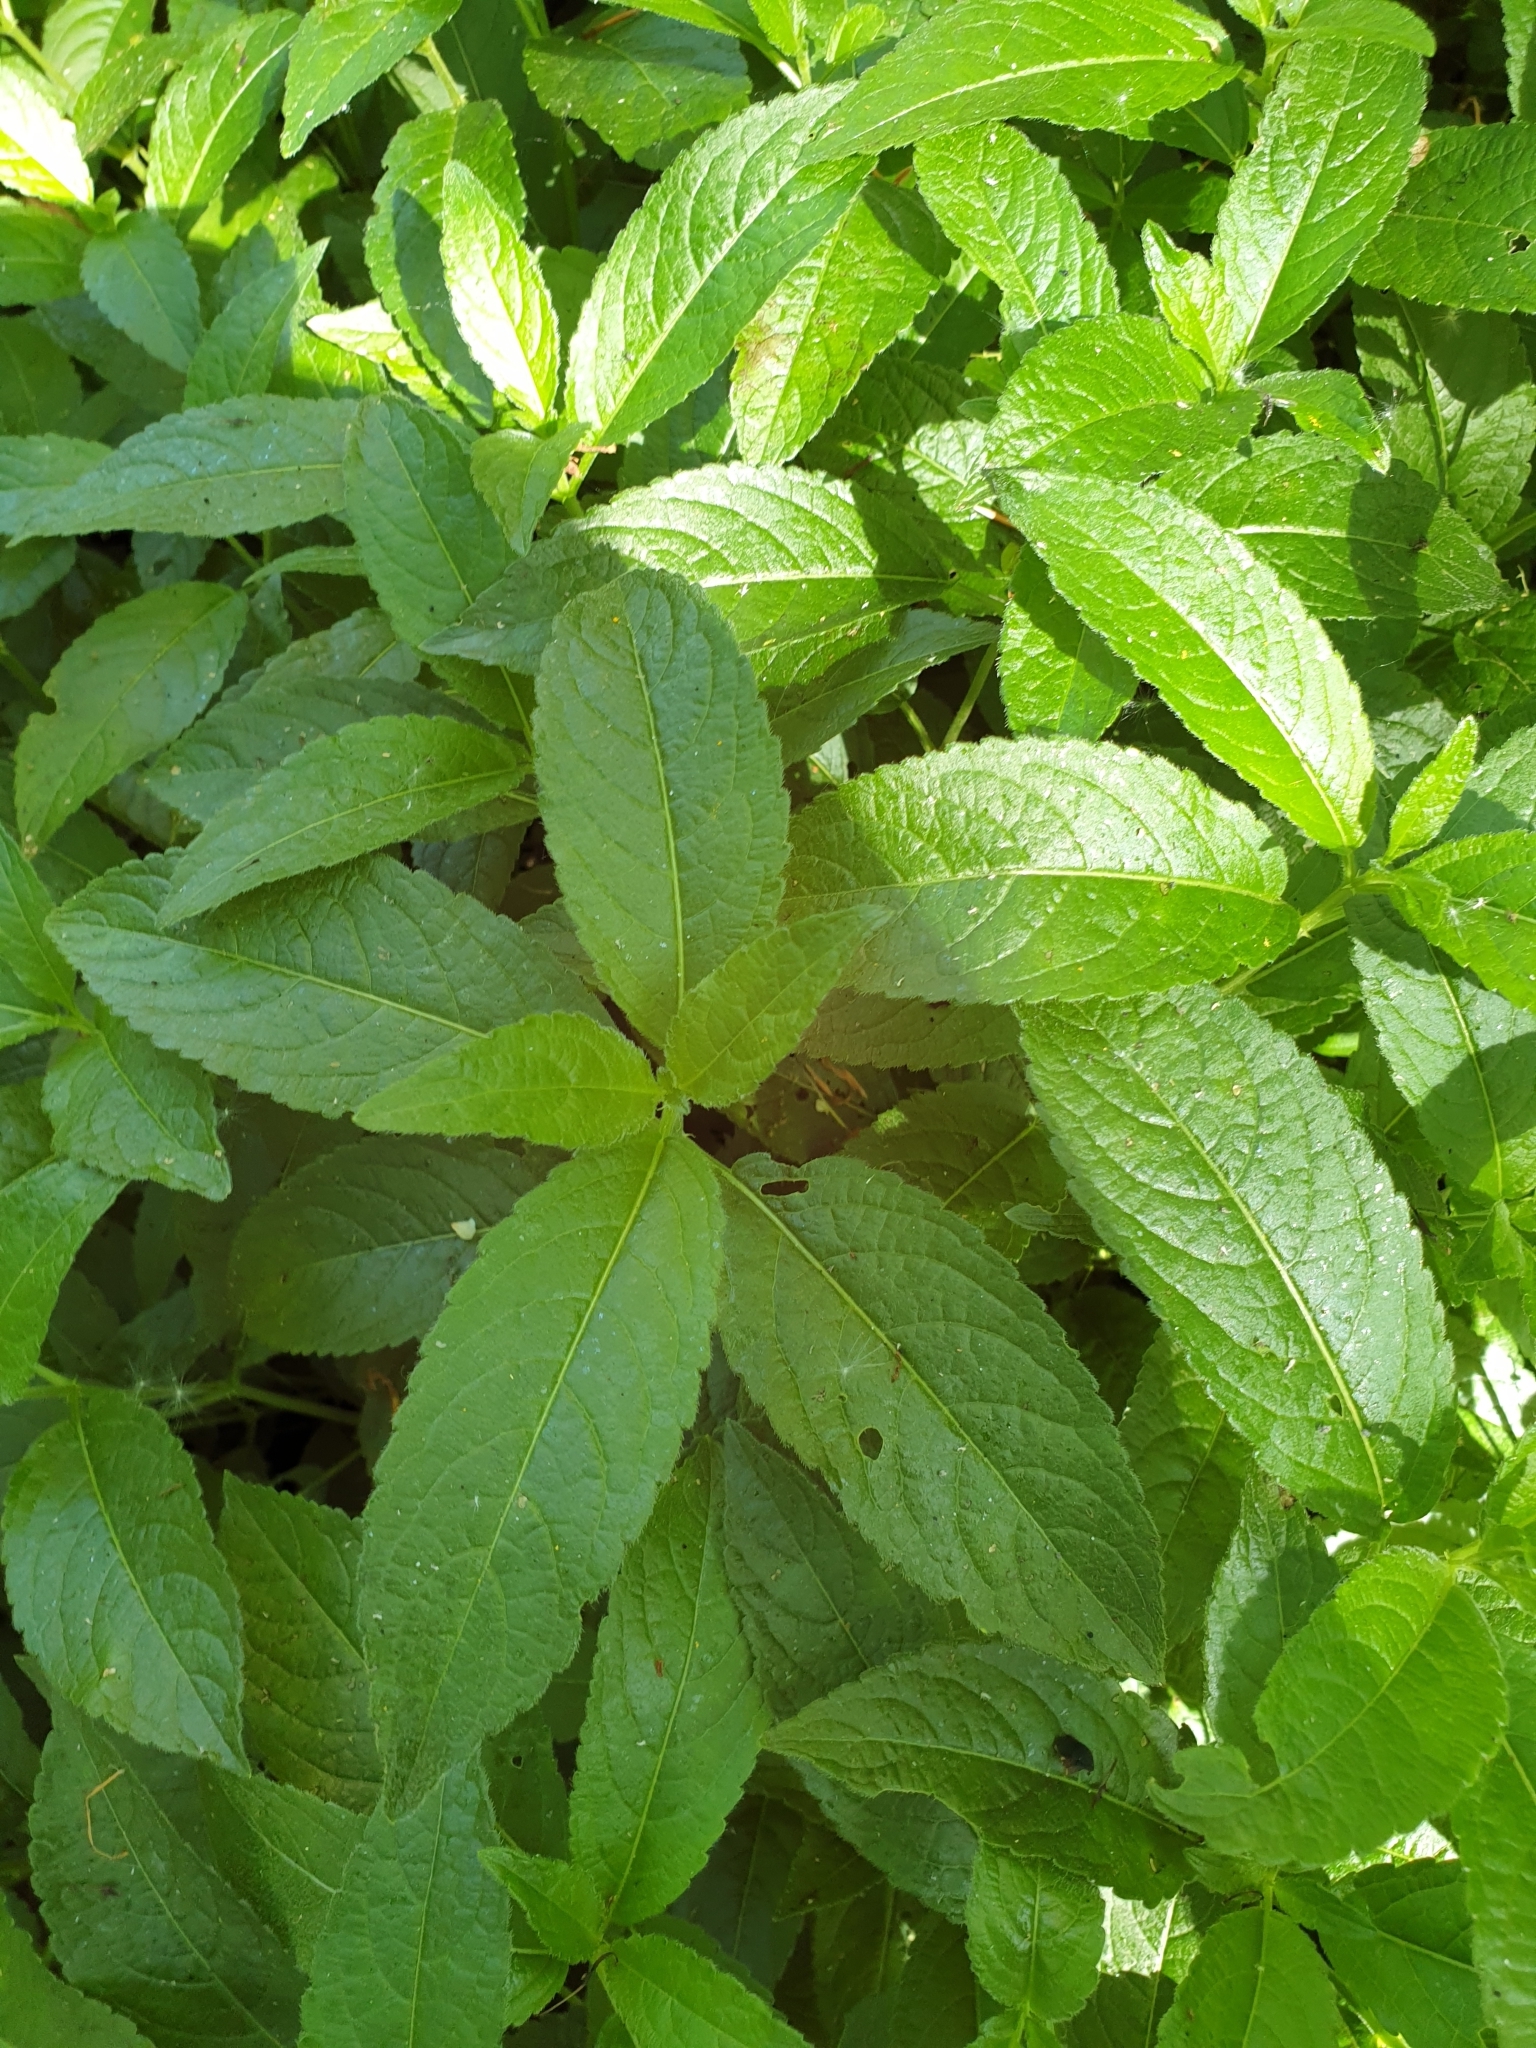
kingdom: Plantae
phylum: Tracheophyta
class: Magnoliopsida
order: Malpighiales
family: Euphorbiaceae
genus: Mercurialis
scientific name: Mercurialis perennis
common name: Dog mercury
